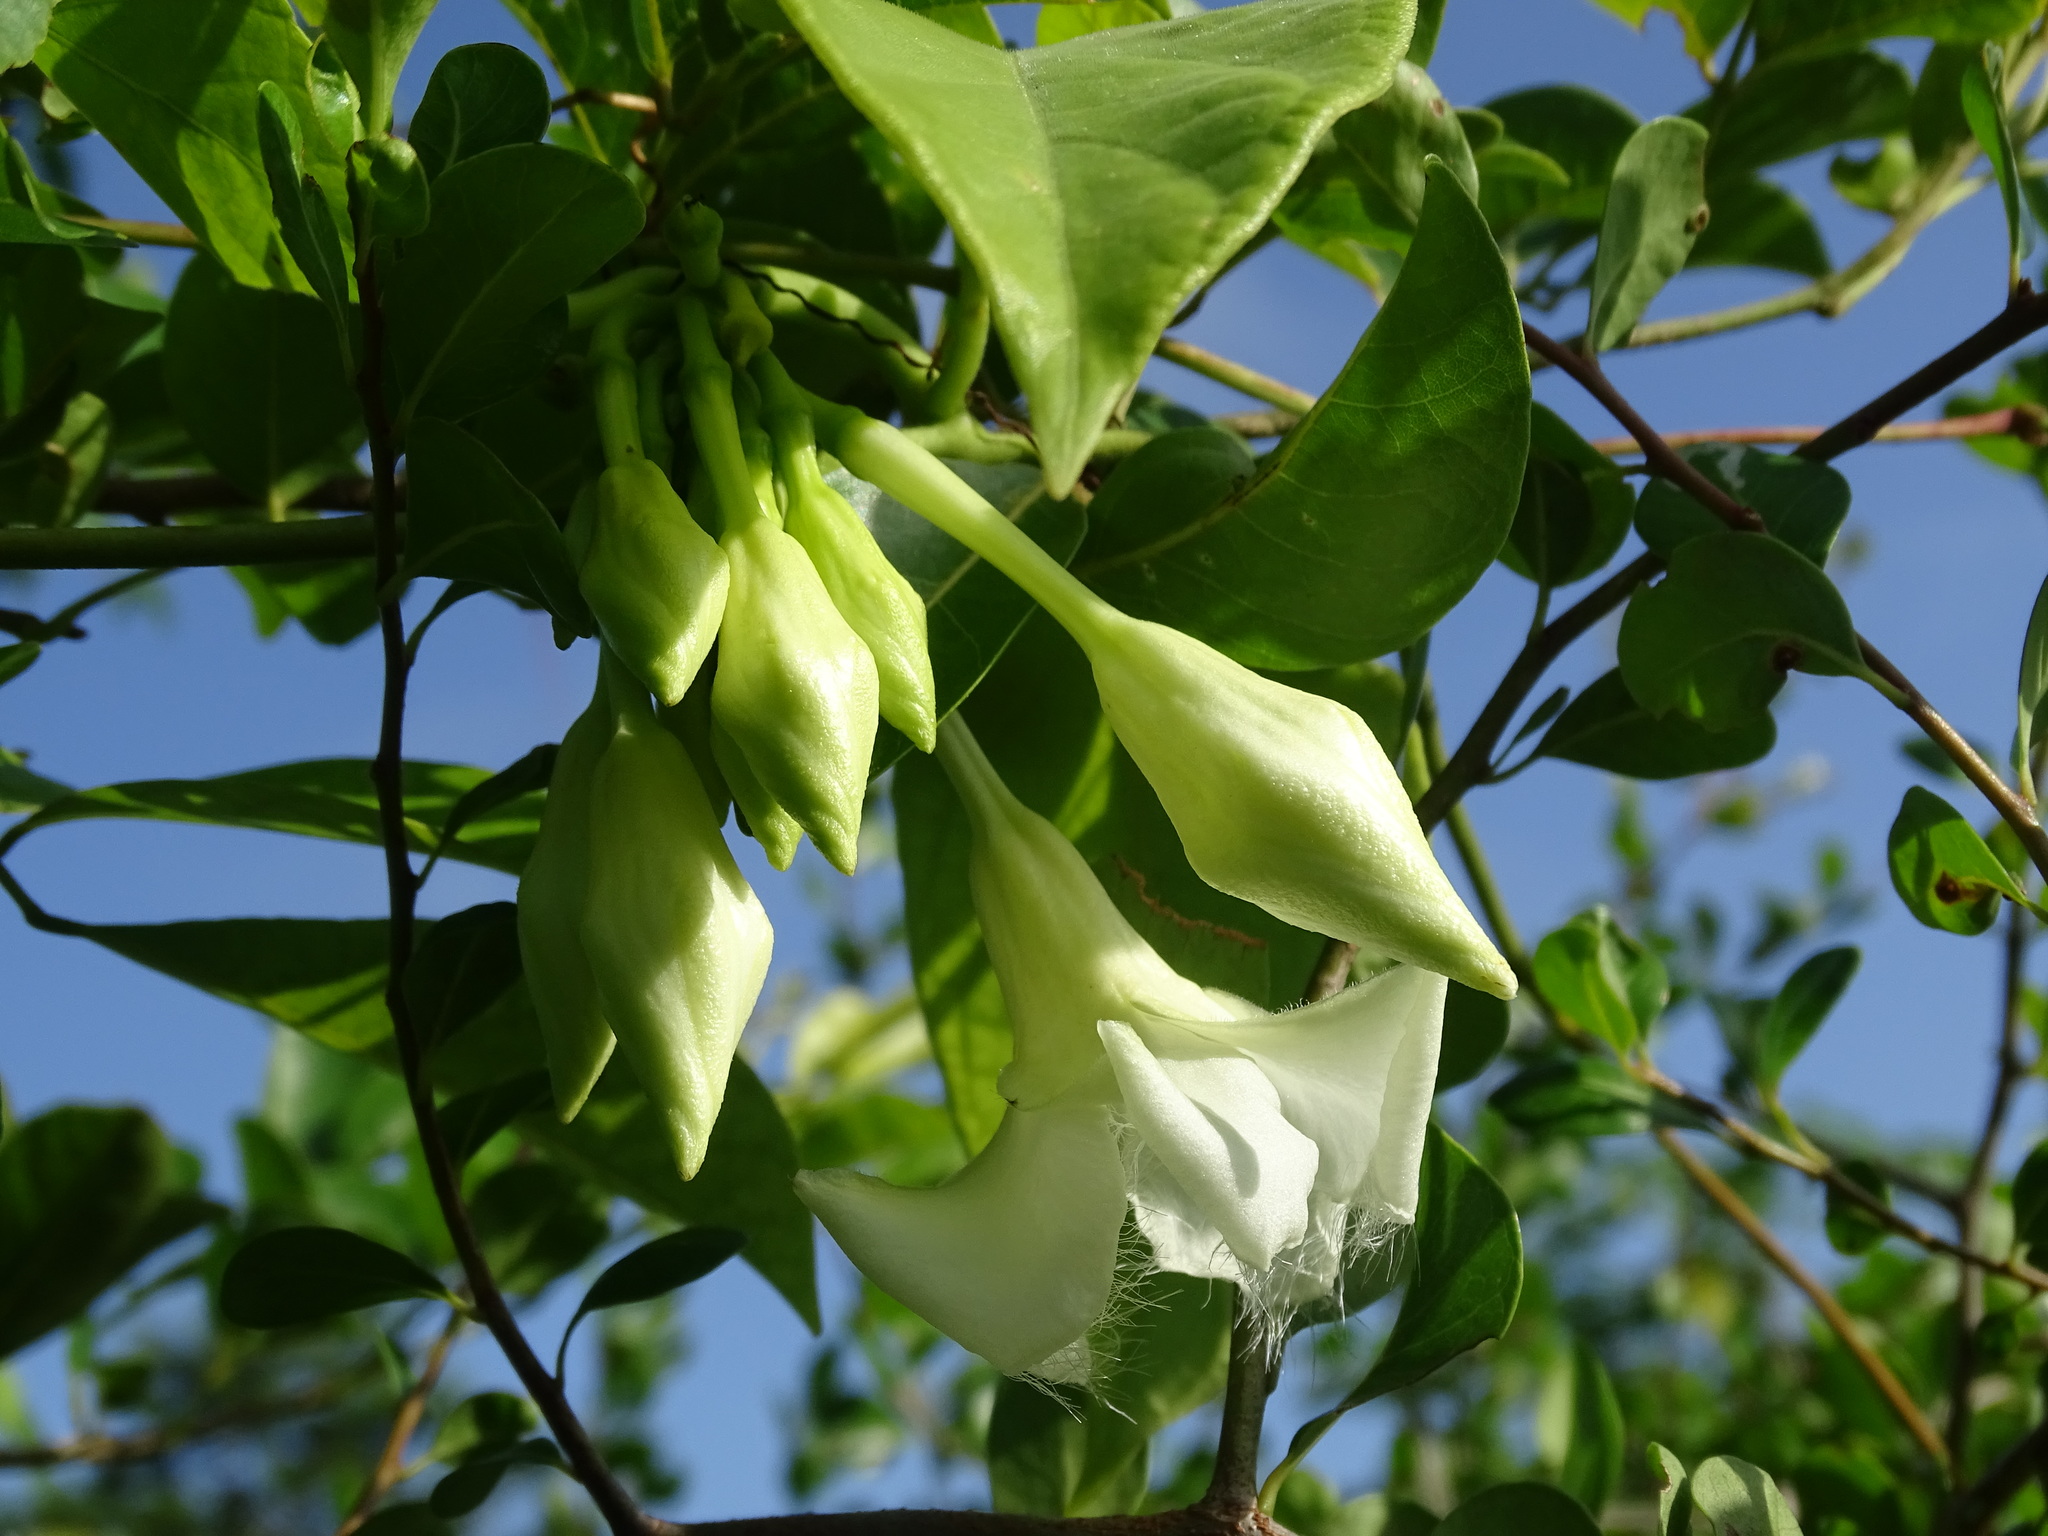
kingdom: Plantae
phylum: Tracheophyta
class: Magnoliopsida
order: Gentianales
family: Apocynaceae
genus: Echites
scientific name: Echites panduratus
